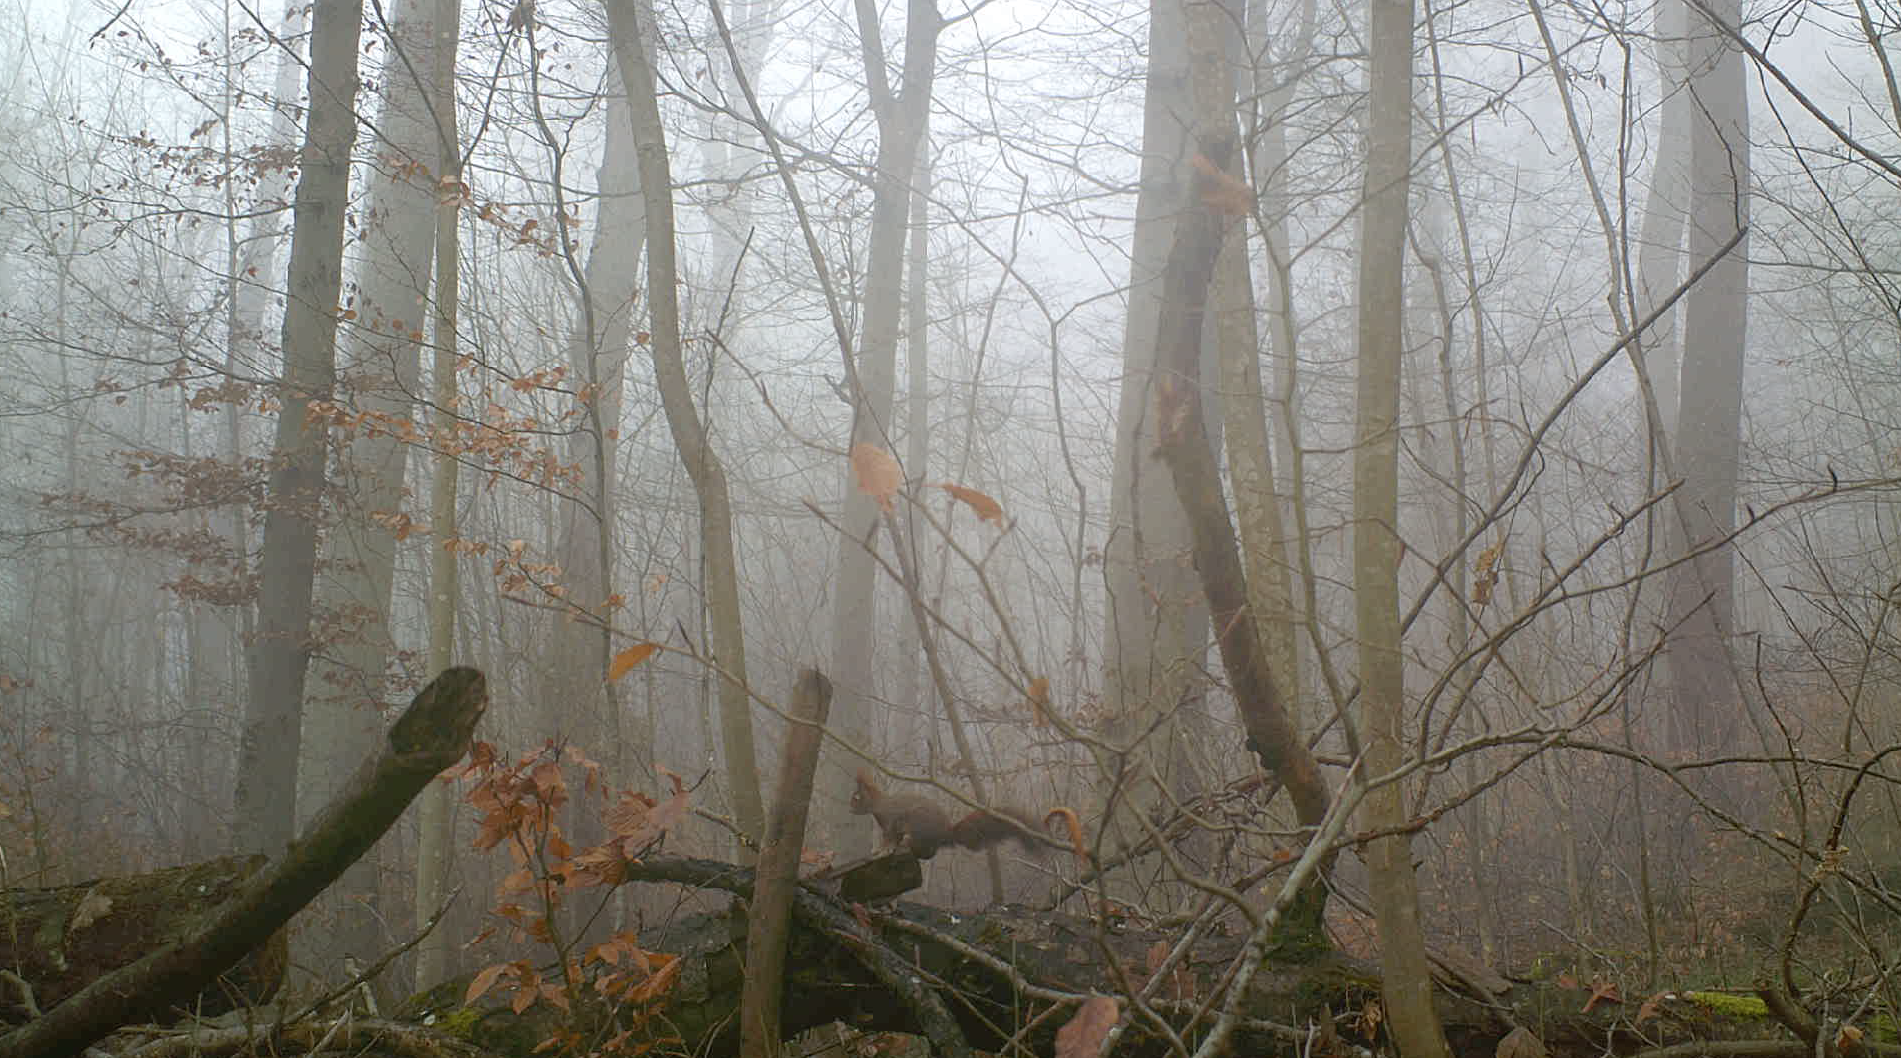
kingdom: Animalia
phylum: Chordata
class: Mammalia
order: Rodentia
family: Sciuridae
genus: Sciurus
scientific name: Sciurus vulgaris
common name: Eurasian red squirrel
